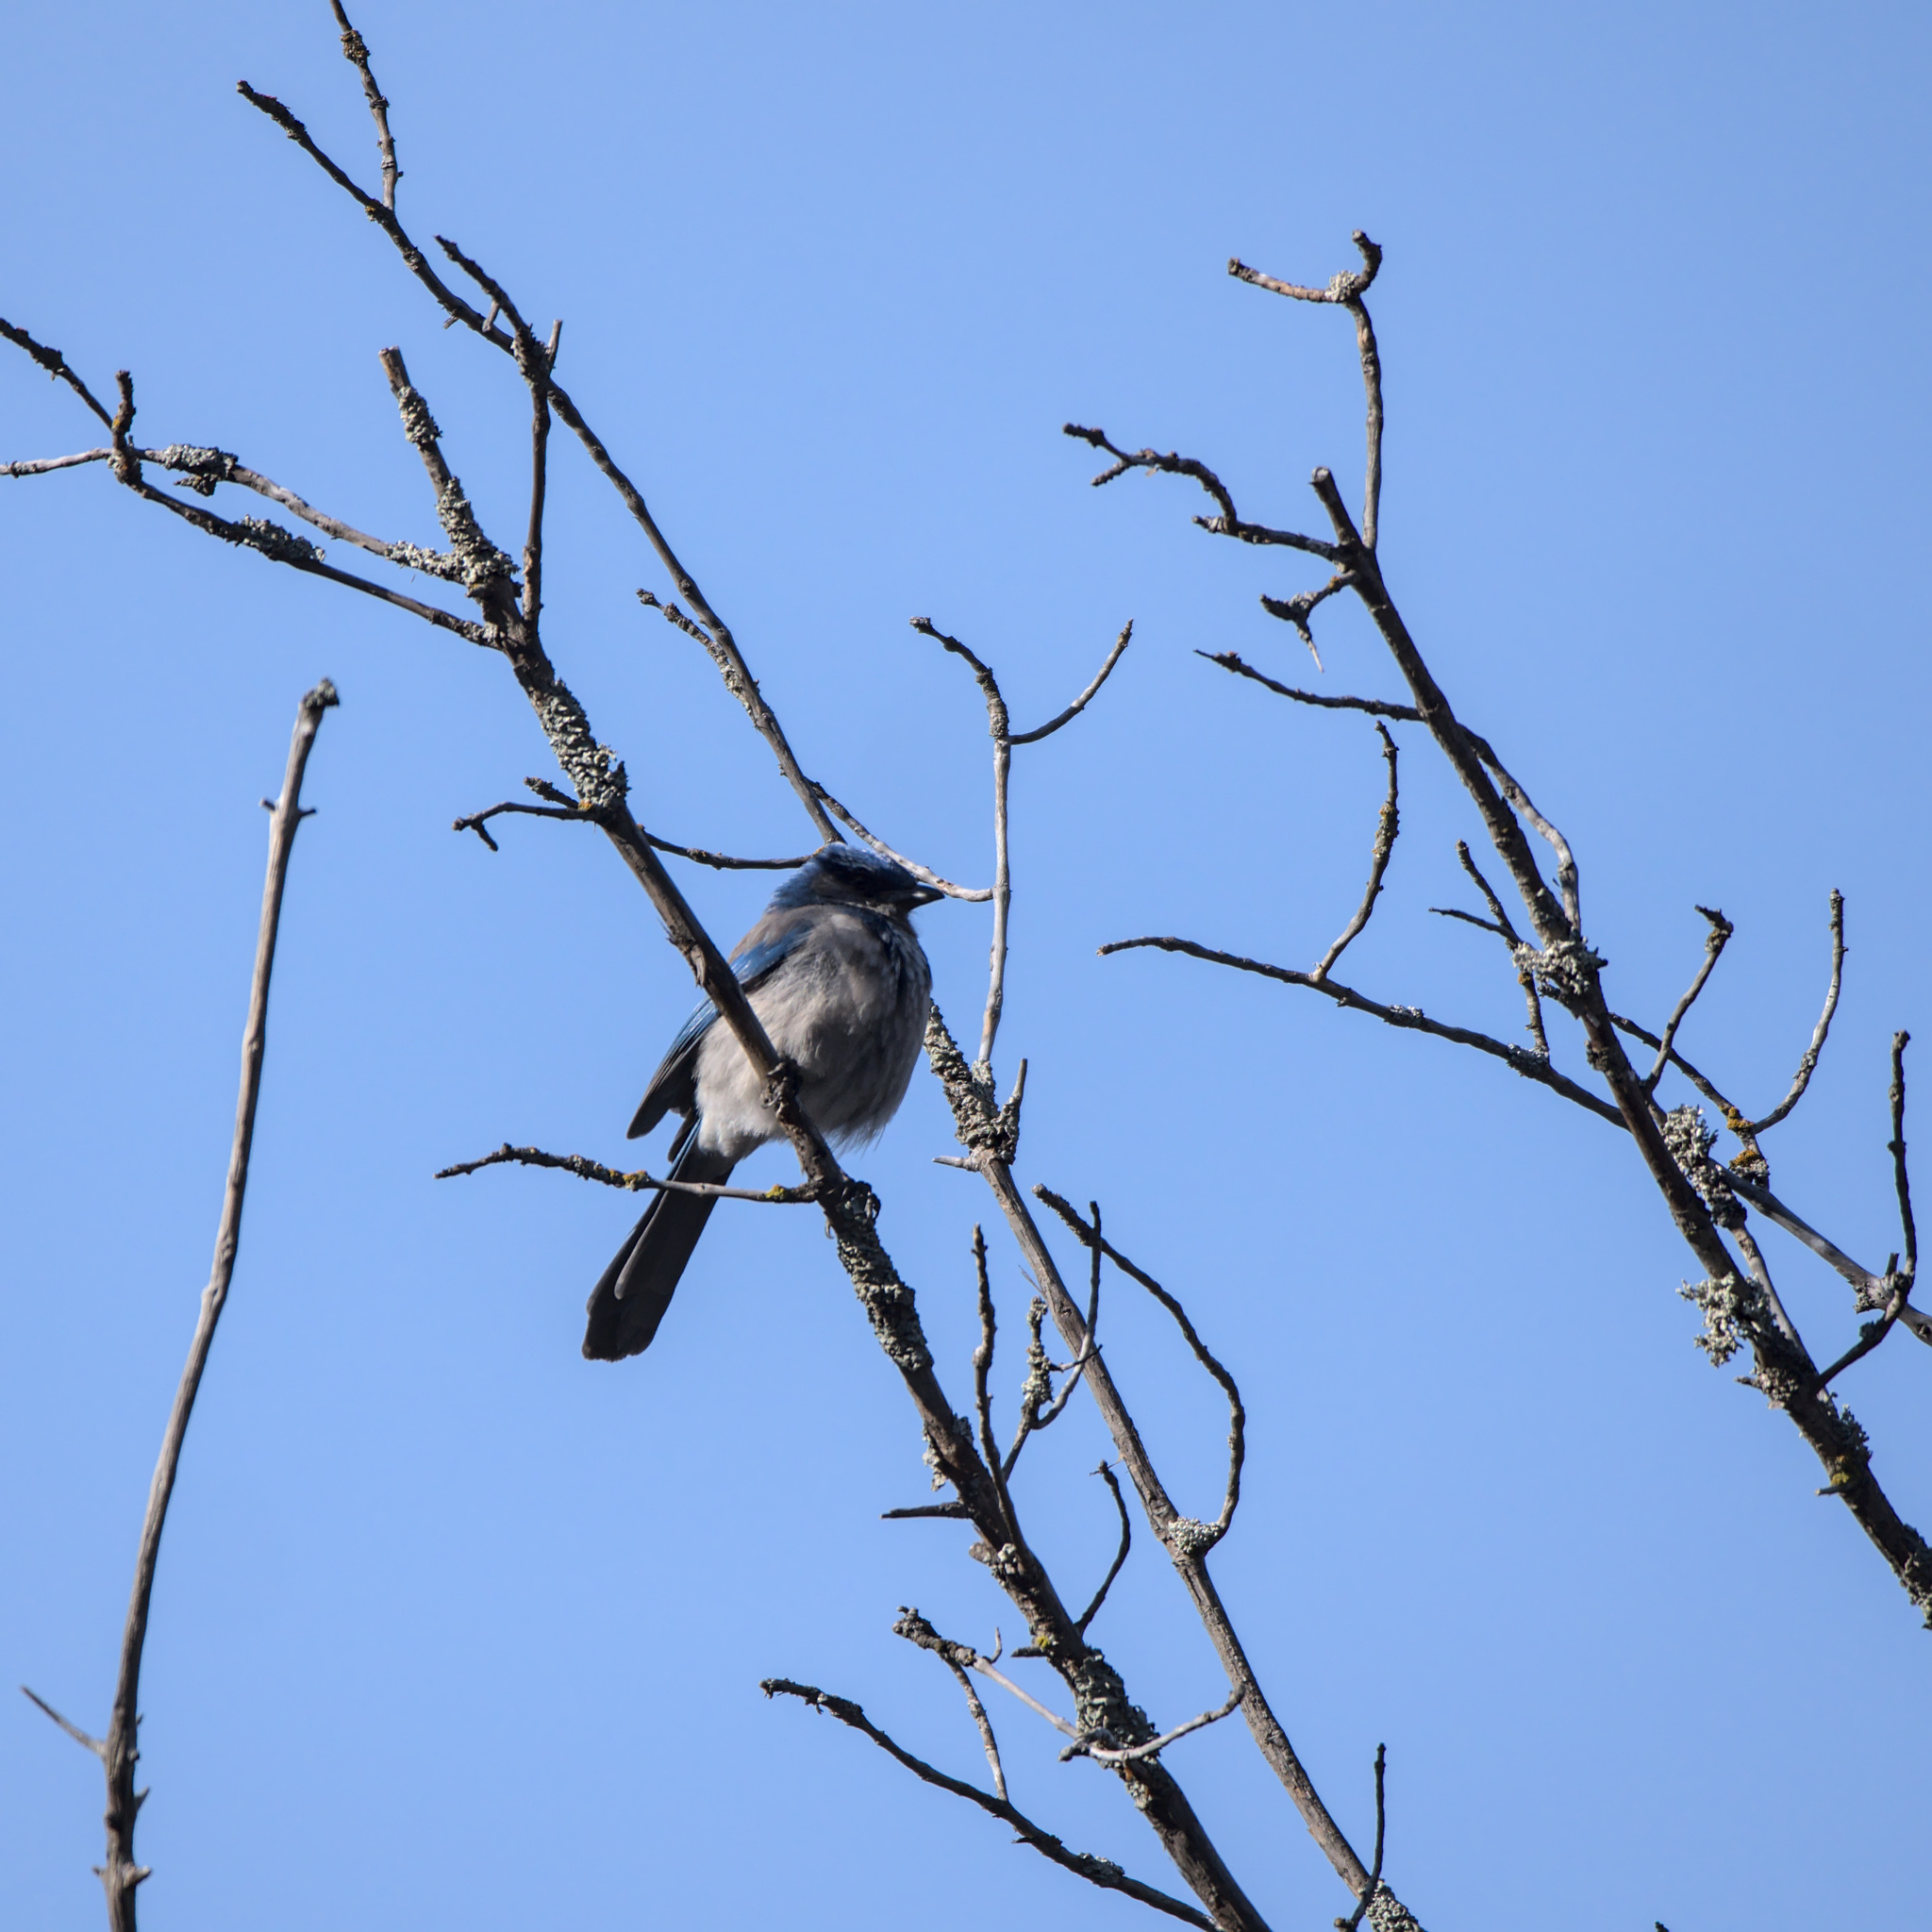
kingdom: Animalia
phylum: Chordata
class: Aves
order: Passeriformes
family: Corvidae
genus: Aphelocoma
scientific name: Aphelocoma californica
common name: California scrub-jay
